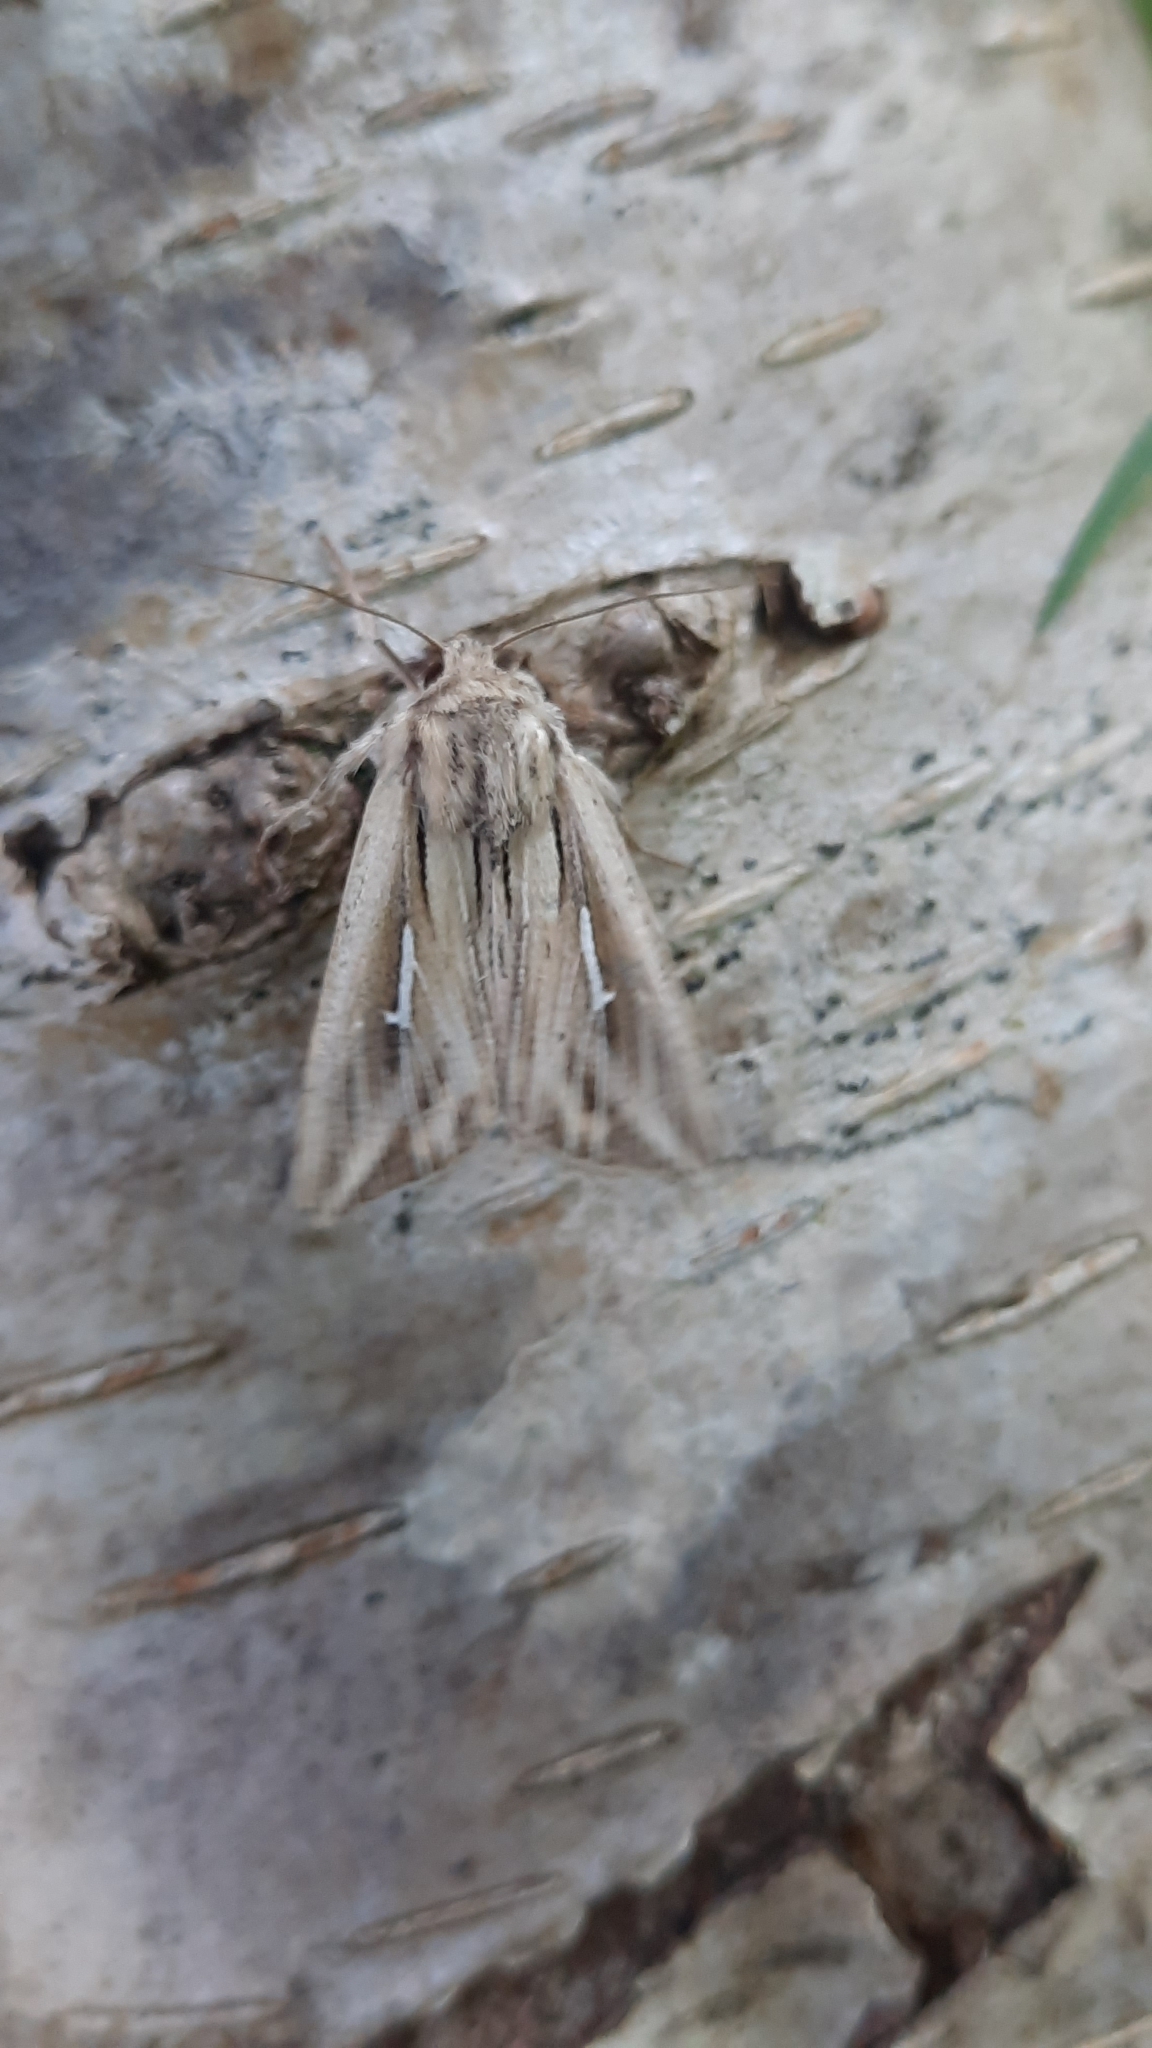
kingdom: Animalia
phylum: Arthropoda
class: Insecta
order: Lepidoptera
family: Noctuidae
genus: Mythimna
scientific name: Mythimna l-album
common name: L-album wainscot
